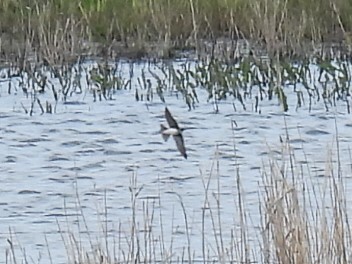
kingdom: Animalia
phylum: Chordata
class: Aves
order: Passeriformes
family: Hirundinidae
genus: Riparia
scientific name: Riparia riparia
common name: Sand martin
